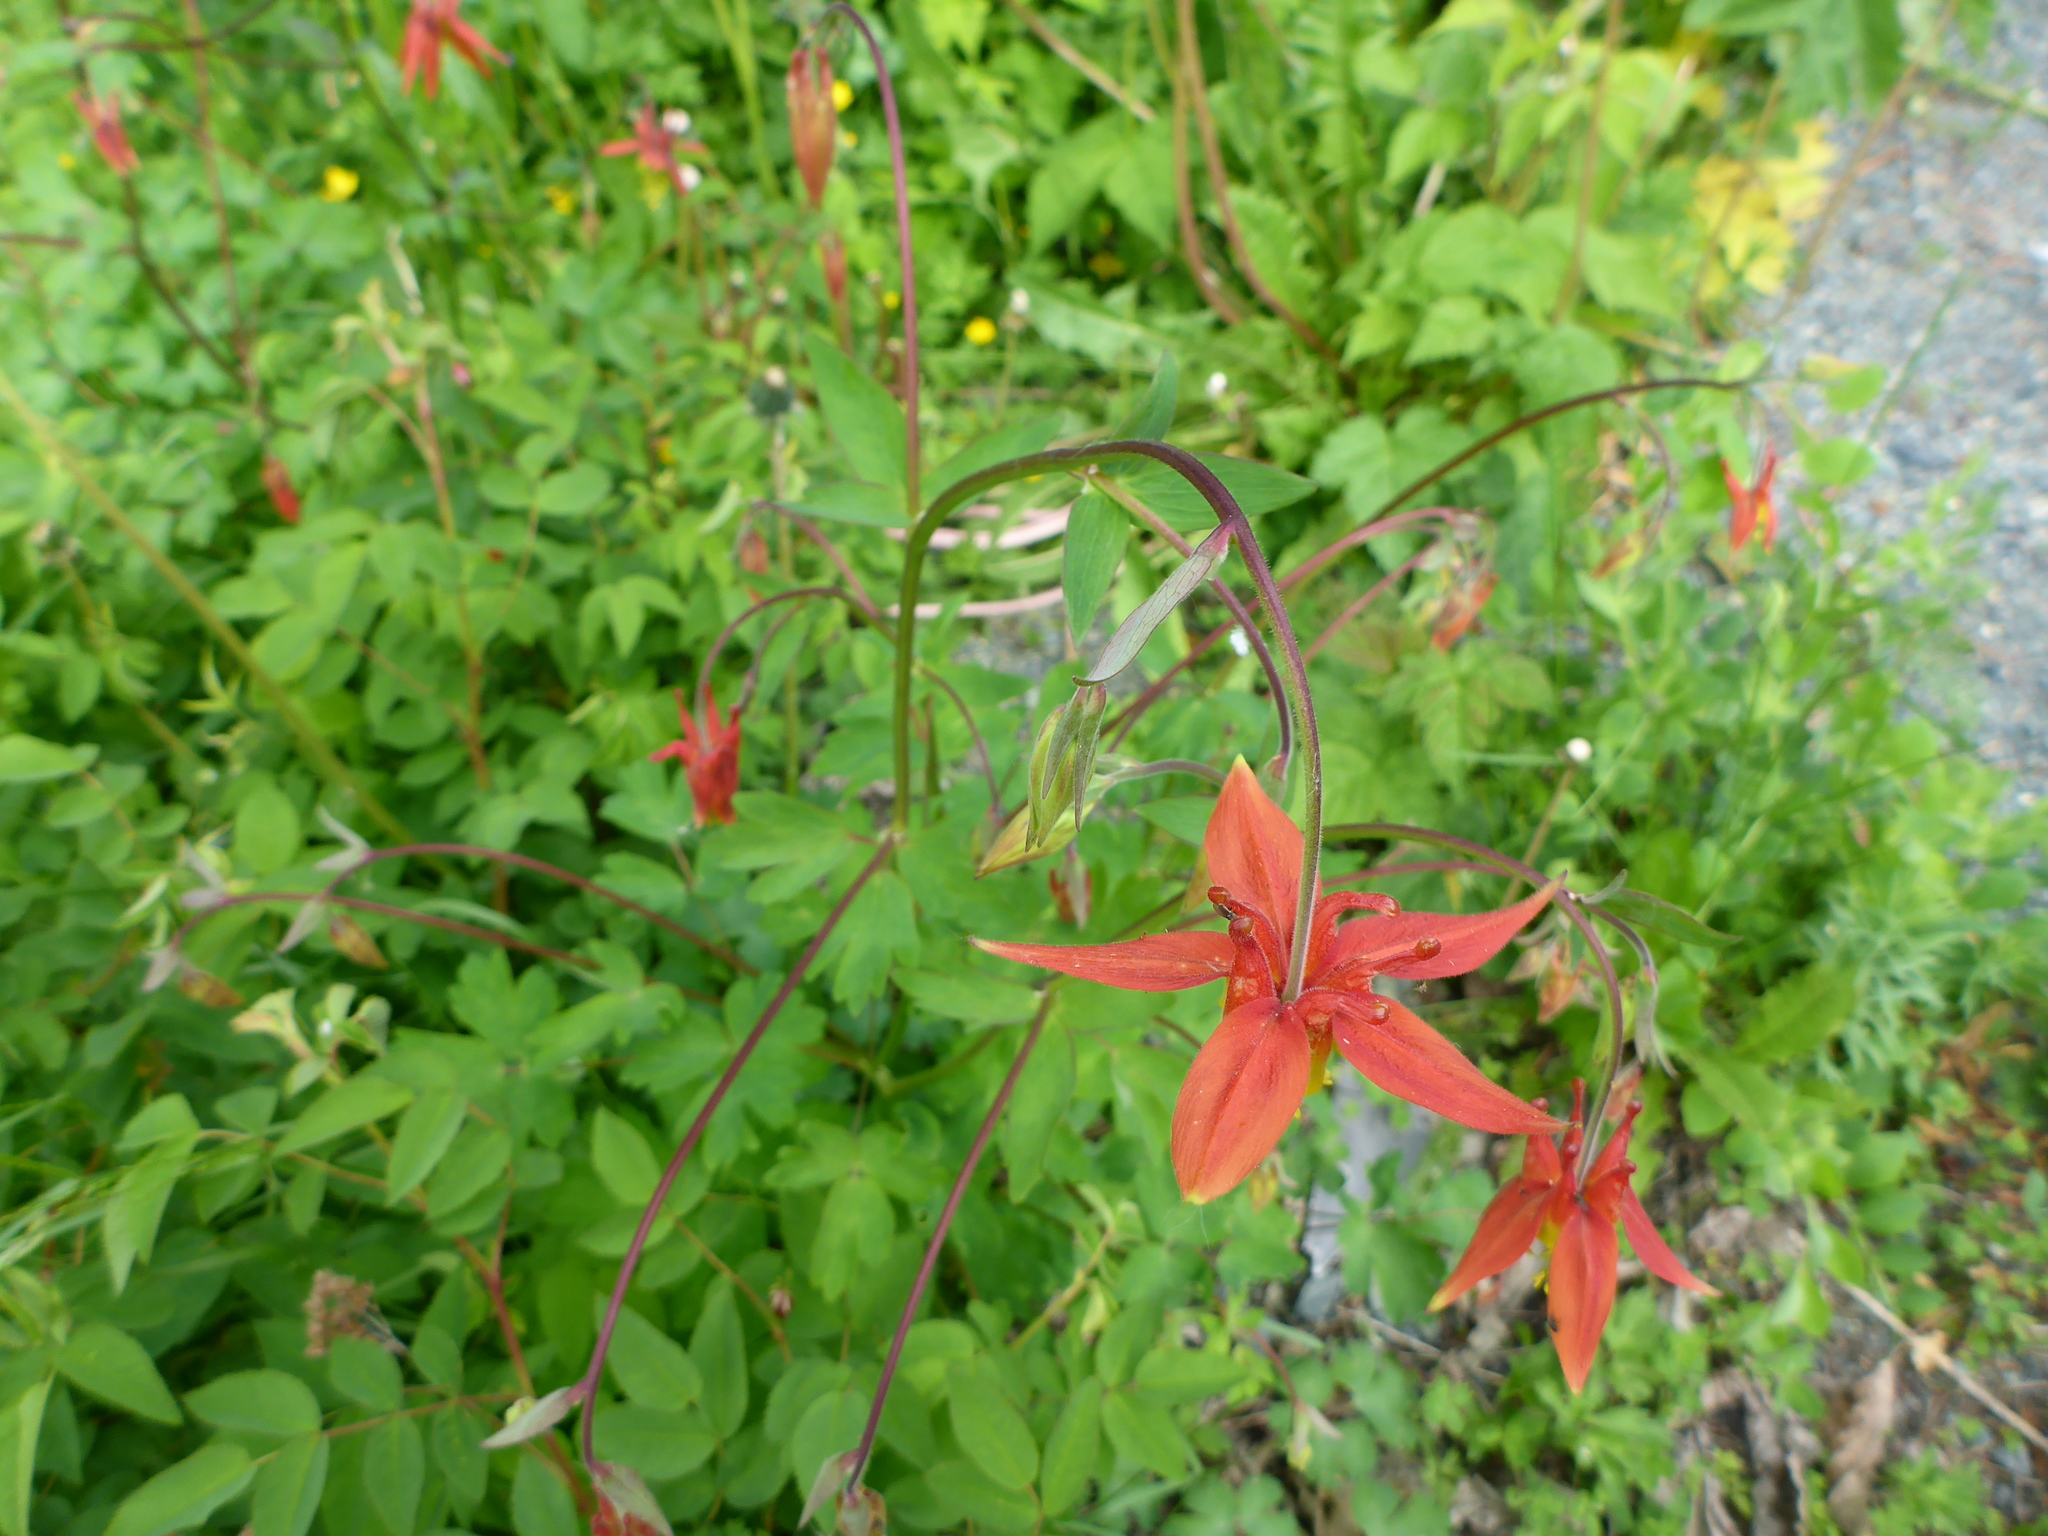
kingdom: Plantae
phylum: Tracheophyta
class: Magnoliopsida
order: Ranunculales
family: Ranunculaceae
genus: Aquilegia
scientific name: Aquilegia formosa
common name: Sitka columbine
